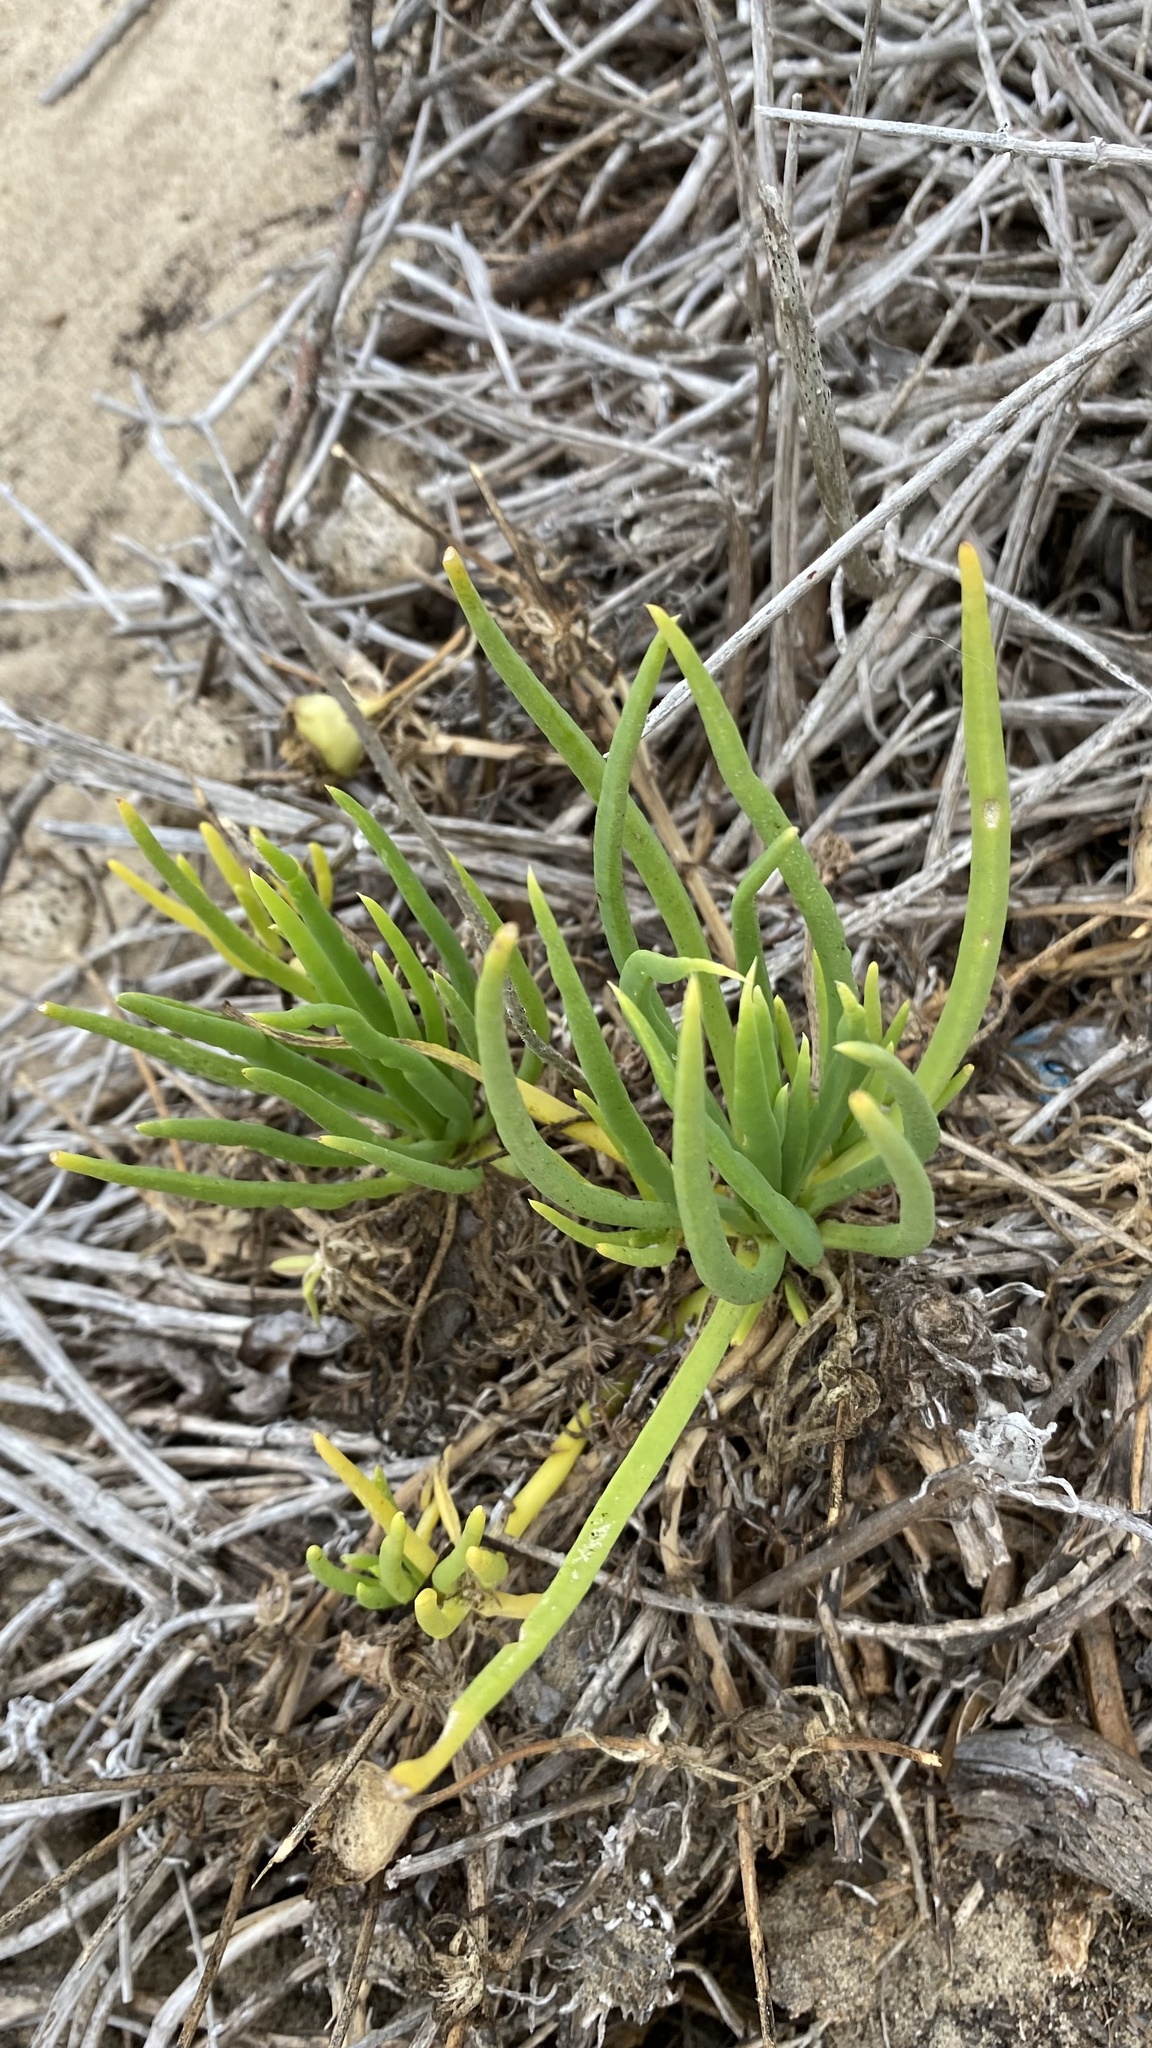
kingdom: Plantae
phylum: Tracheophyta
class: Magnoliopsida
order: Caryophyllales
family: Aizoaceae
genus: Conicosia
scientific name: Conicosia pugioniformis
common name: Narrow-leaved iceplant
